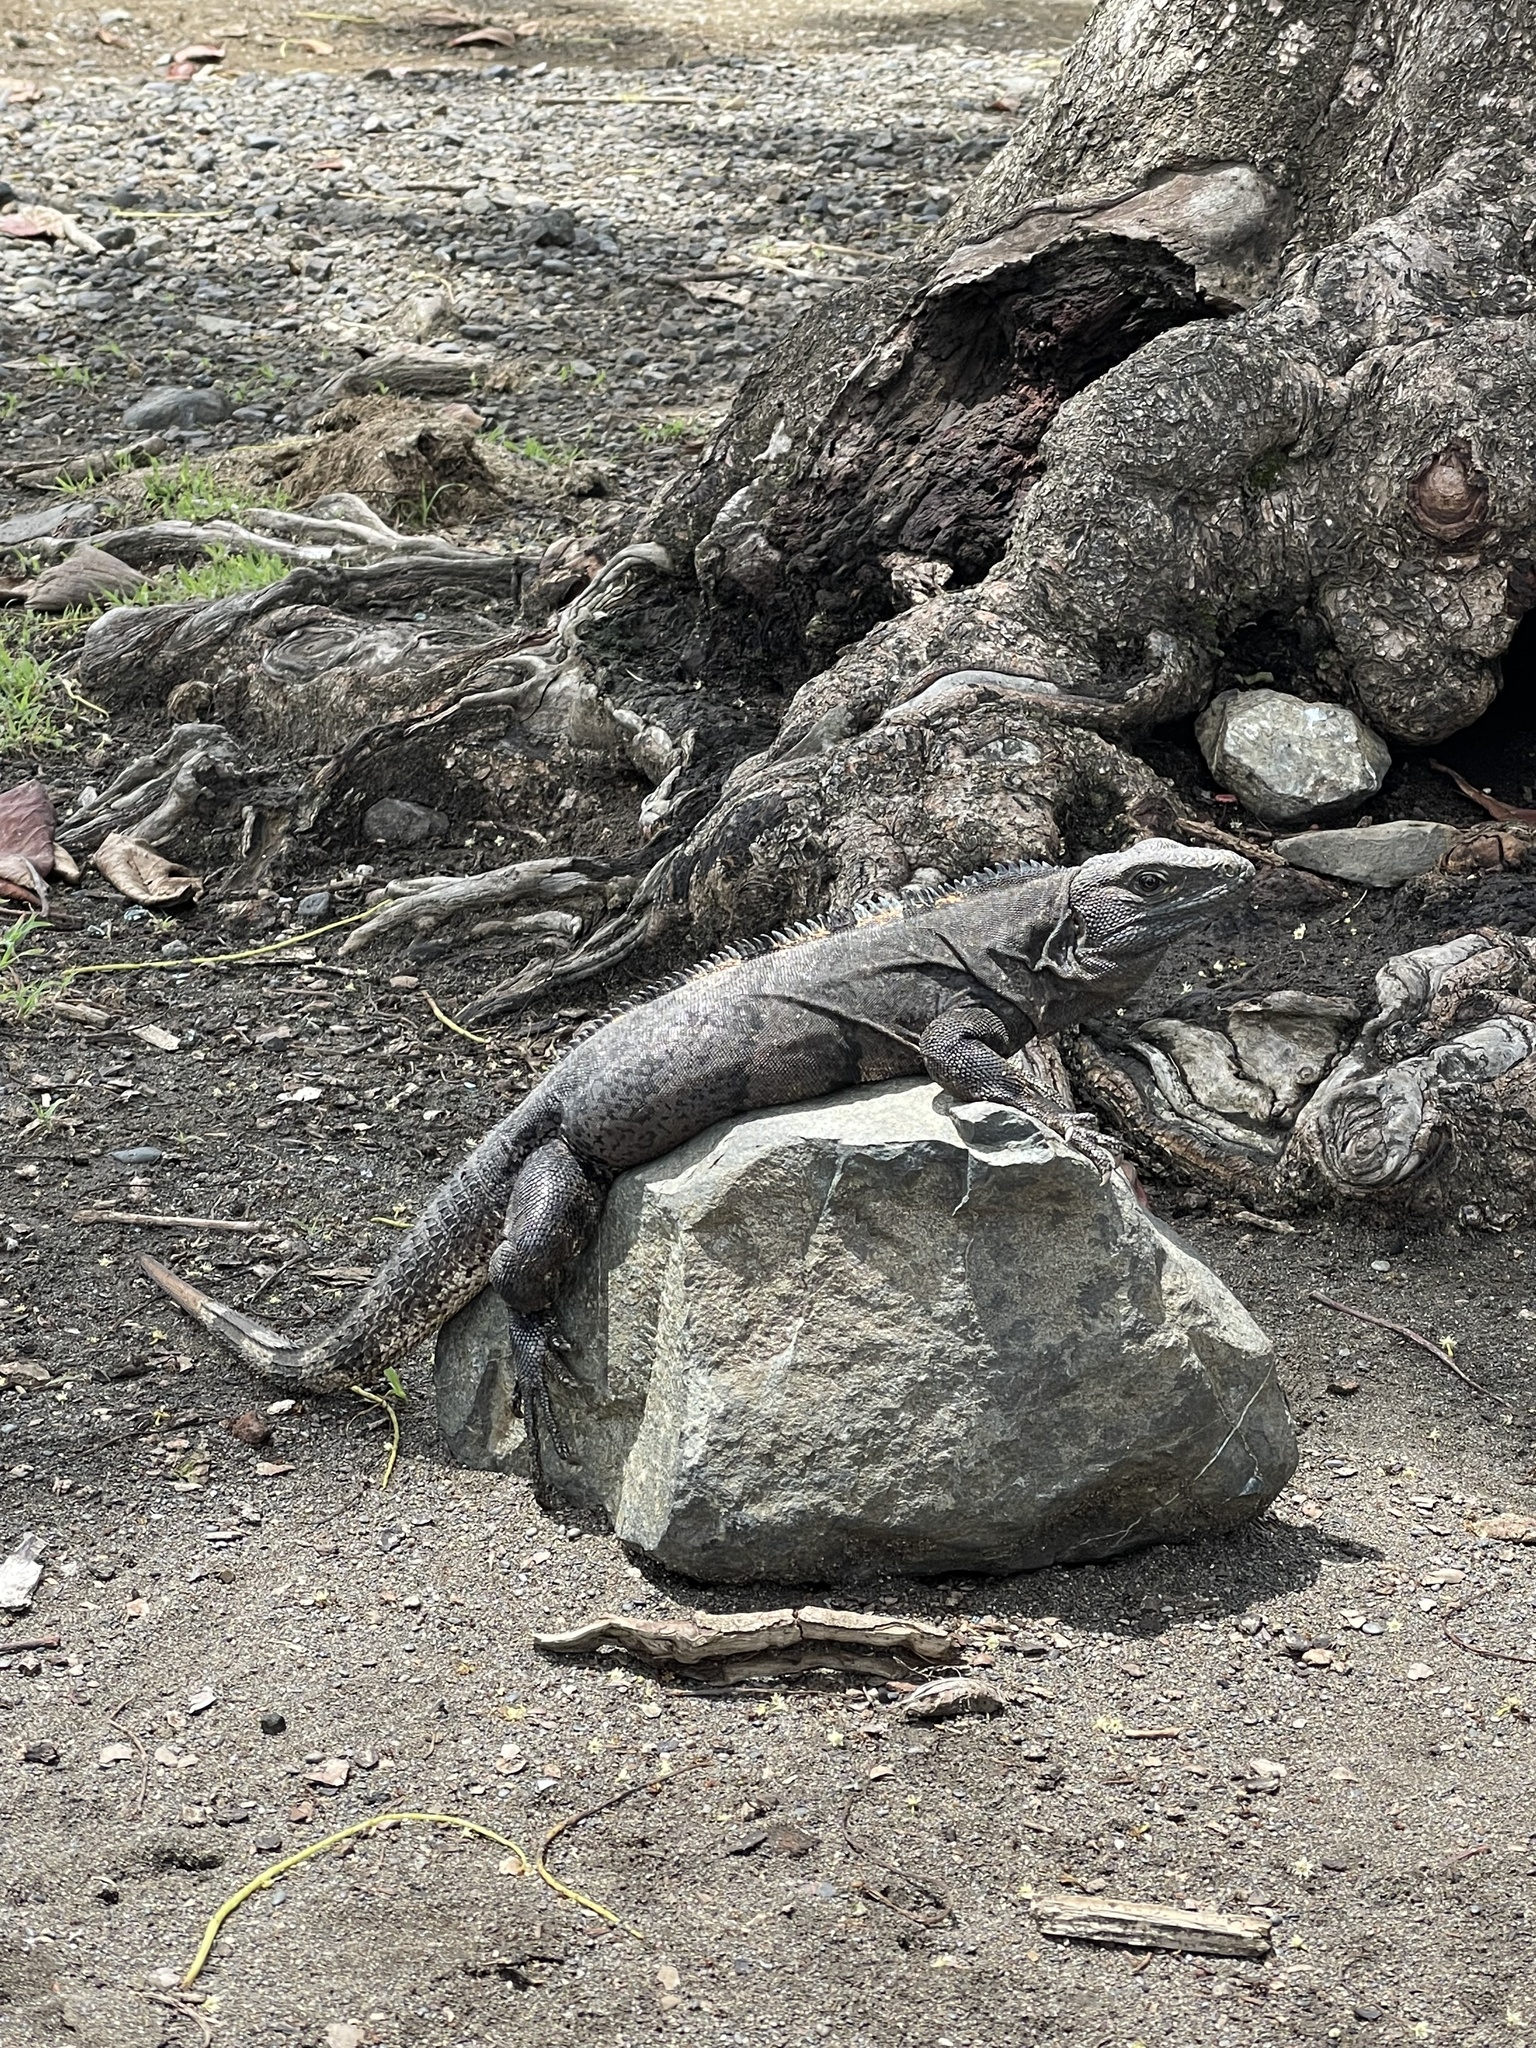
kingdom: Animalia
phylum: Chordata
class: Squamata
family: Iguanidae
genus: Ctenosaura
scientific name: Ctenosaura similis
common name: Black spiny-tailed iguana
